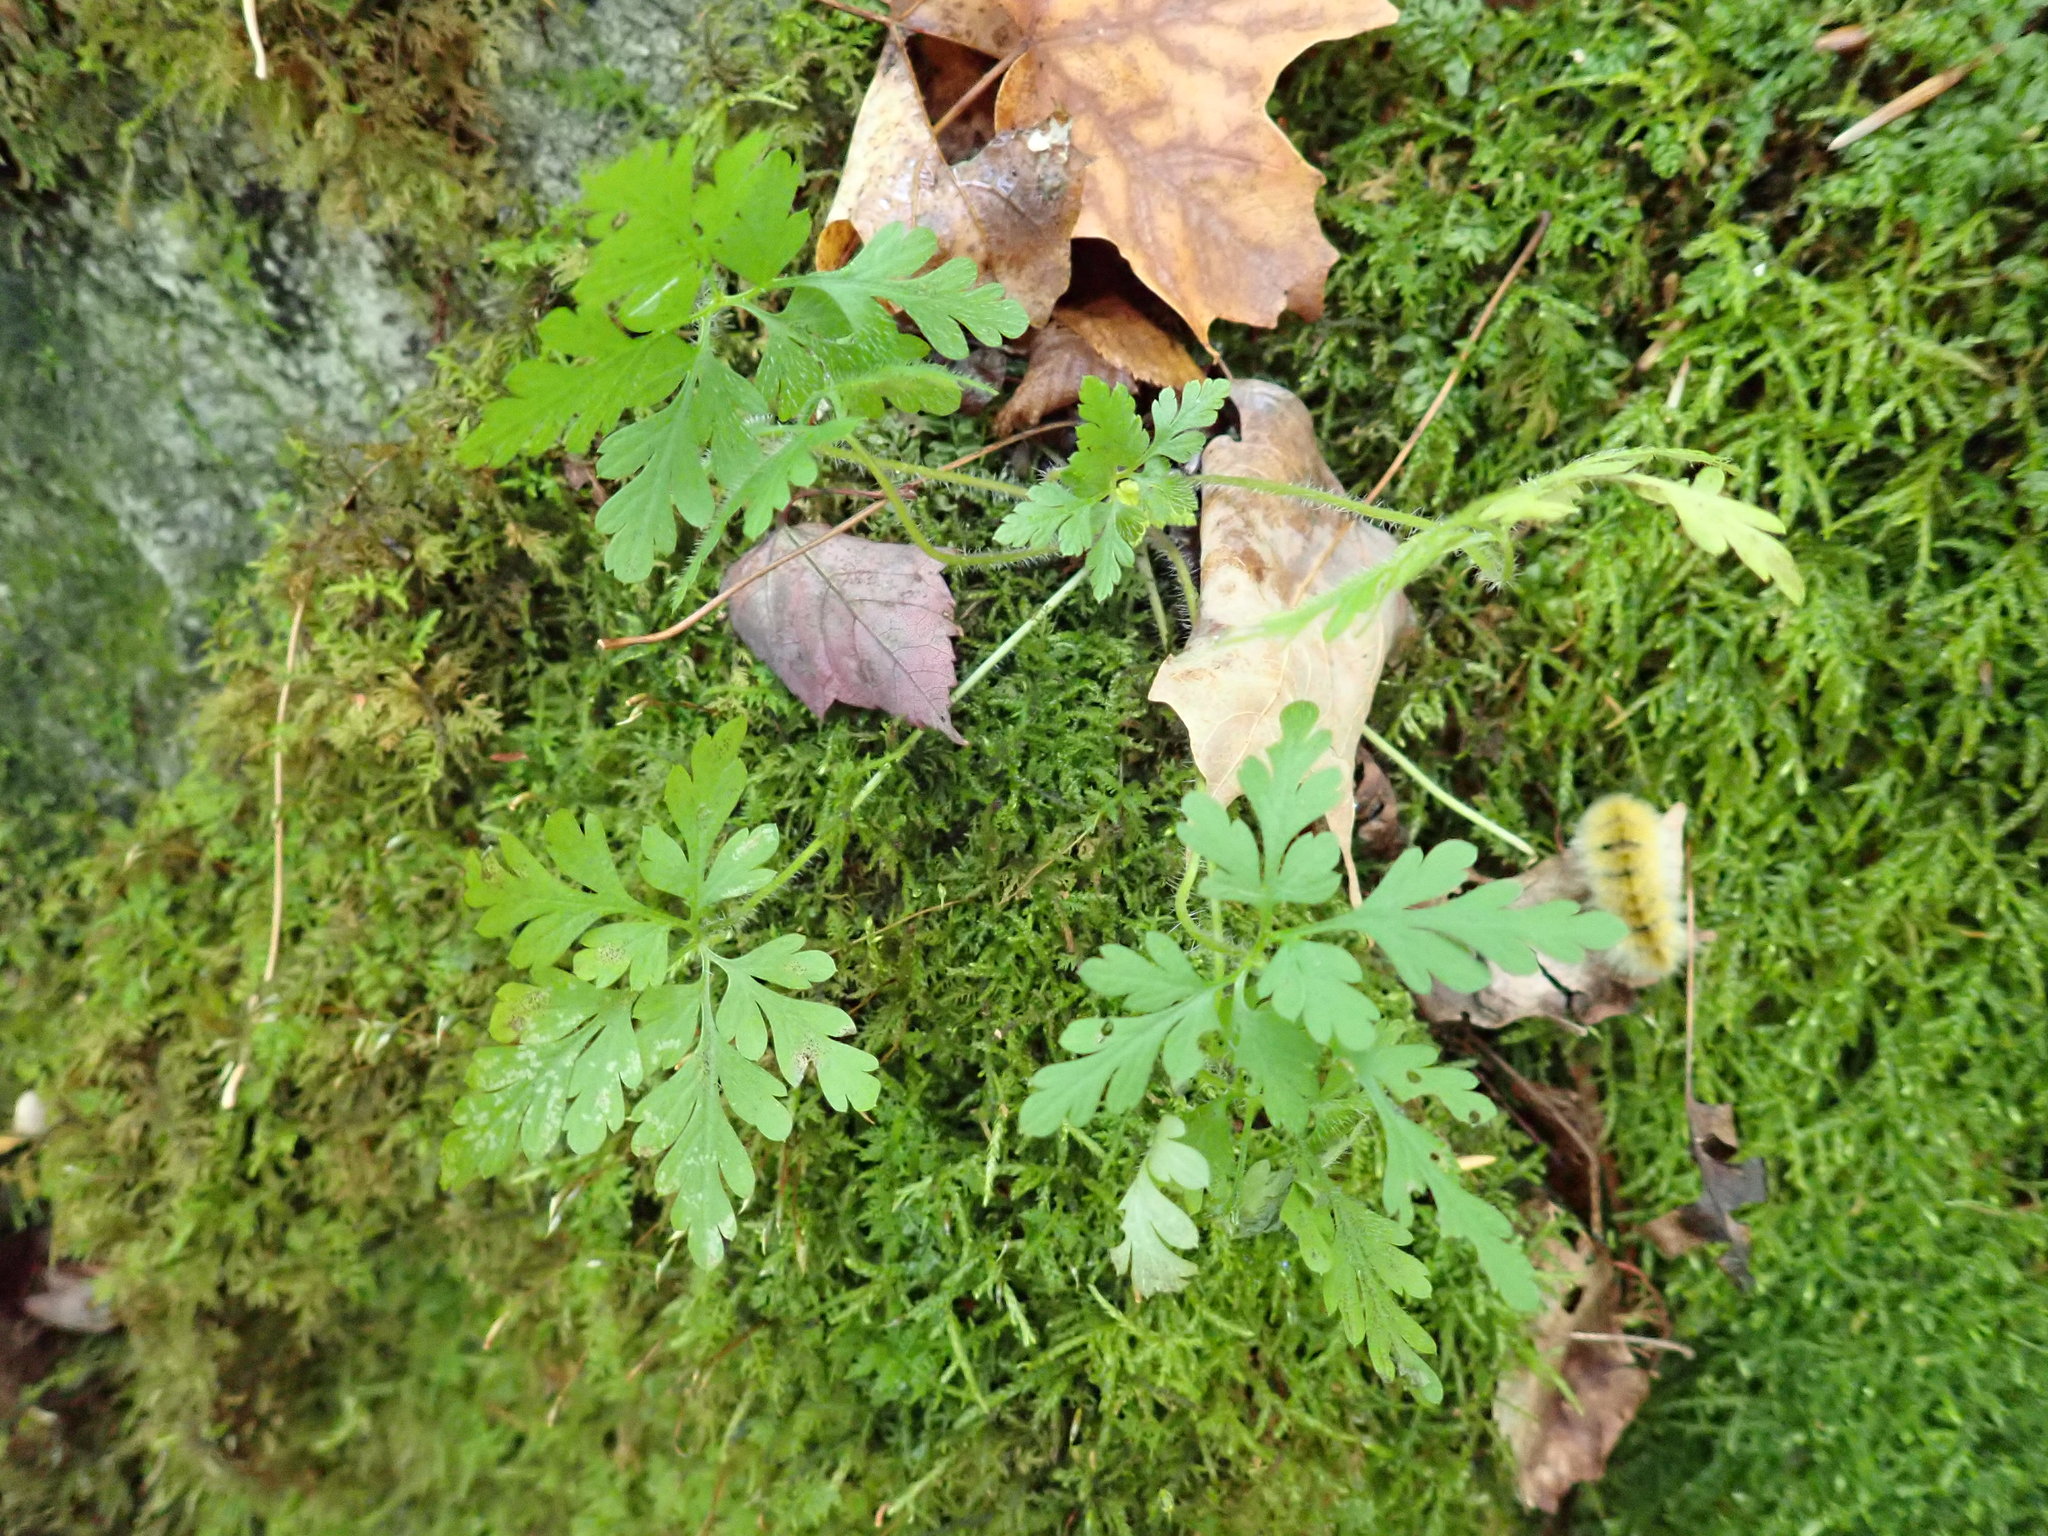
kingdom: Plantae
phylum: Tracheophyta
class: Magnoliopsida
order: Geraniales
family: Geraniaceae
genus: Geranium
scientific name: Geranium robertianum
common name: Herb-robert
